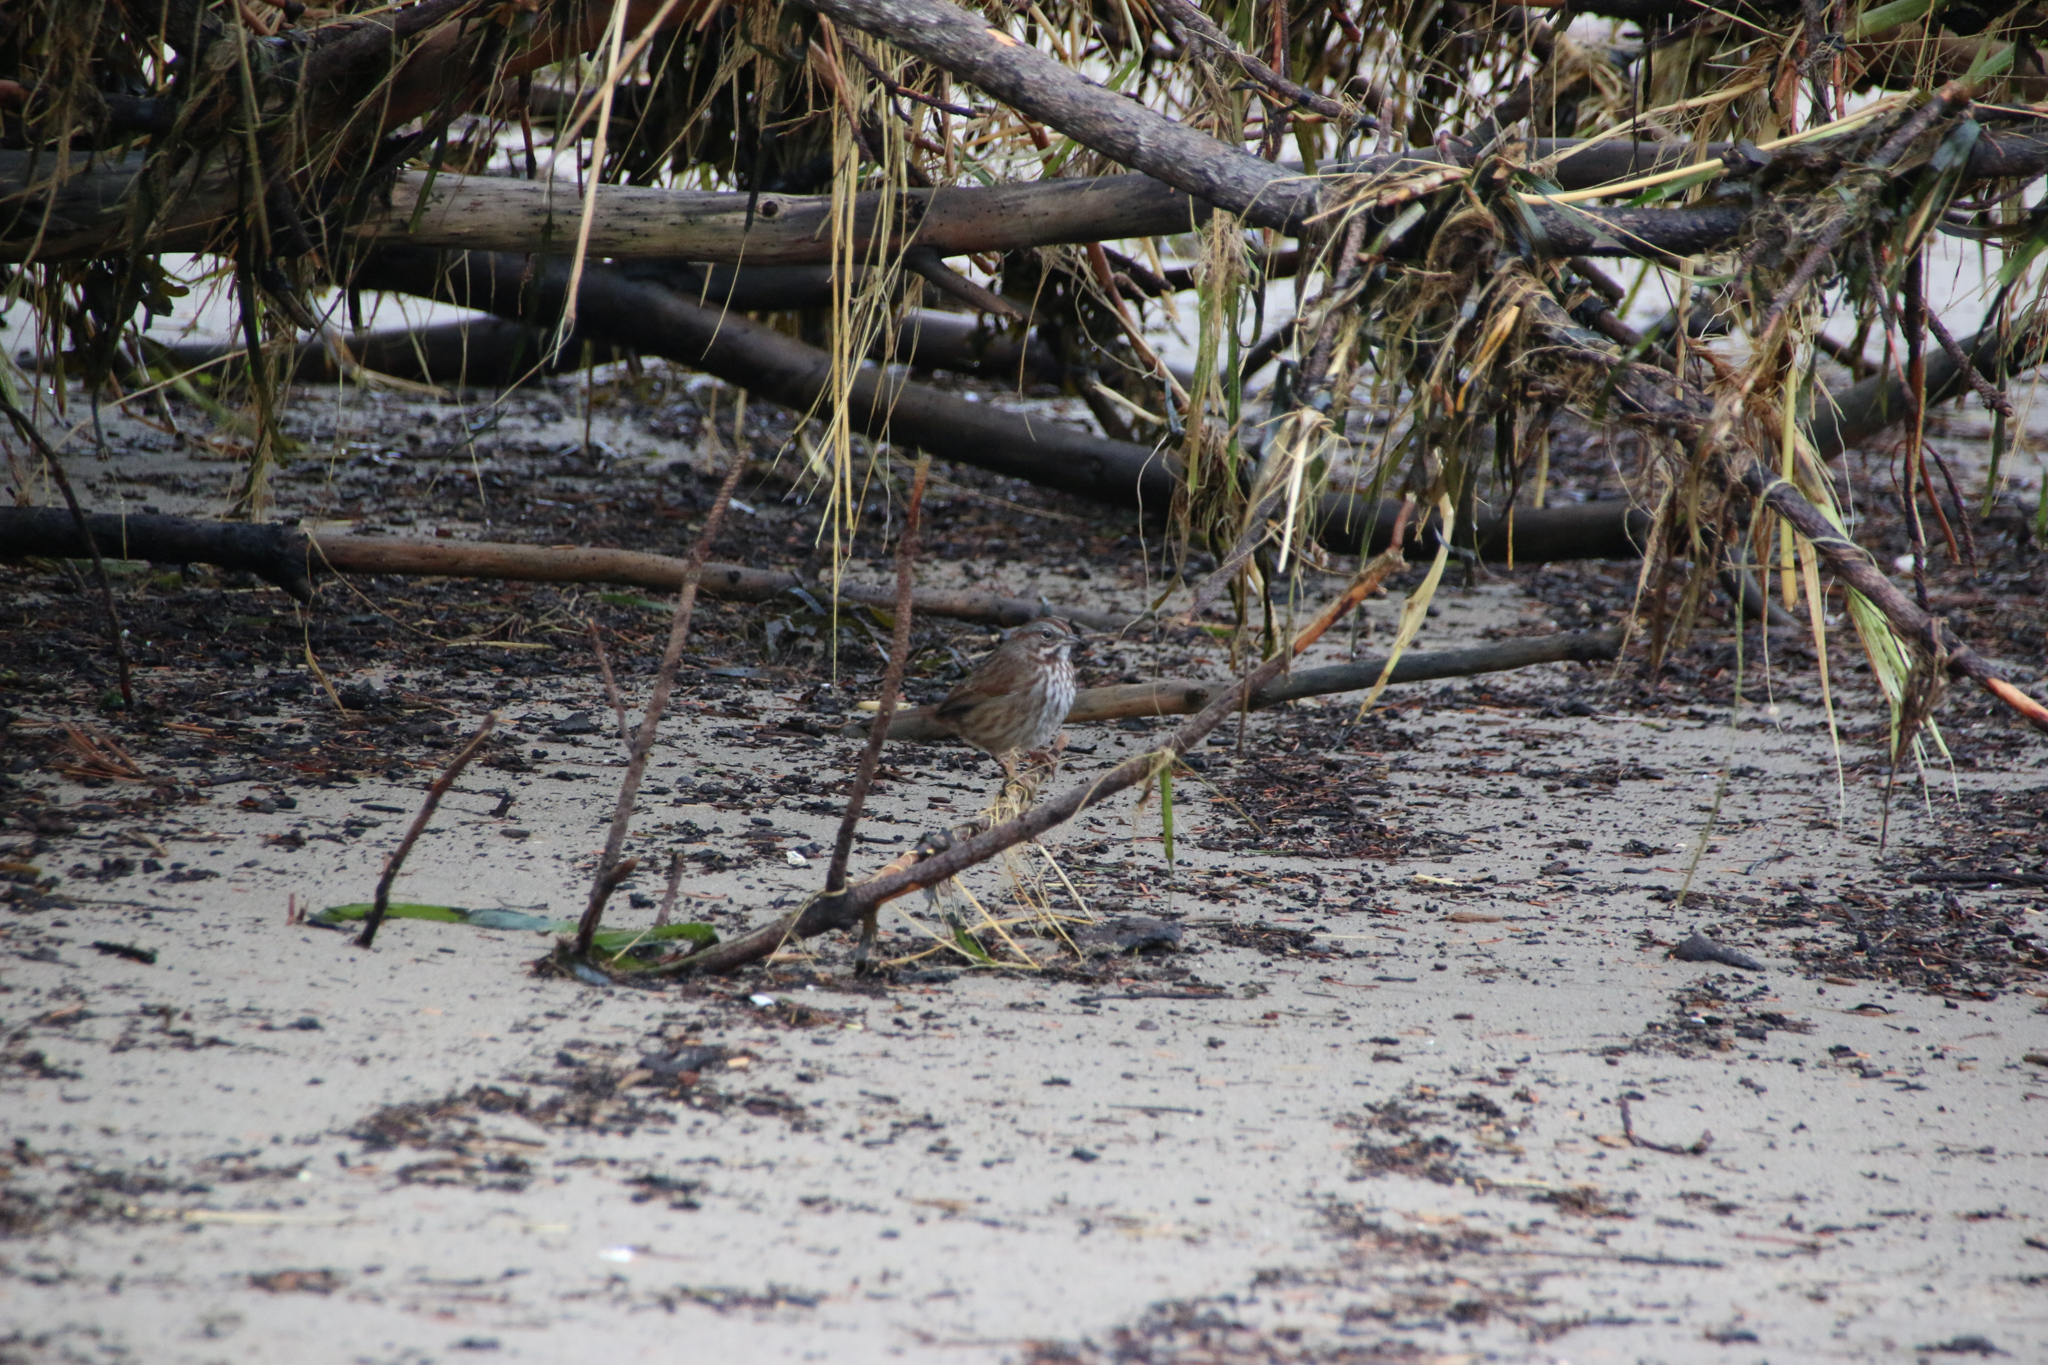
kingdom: Animalia
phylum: Chordata
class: Aves
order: Passeriformes
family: Passerellidae
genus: Melospiza
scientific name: Melospiza melodia
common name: Song sparrow
